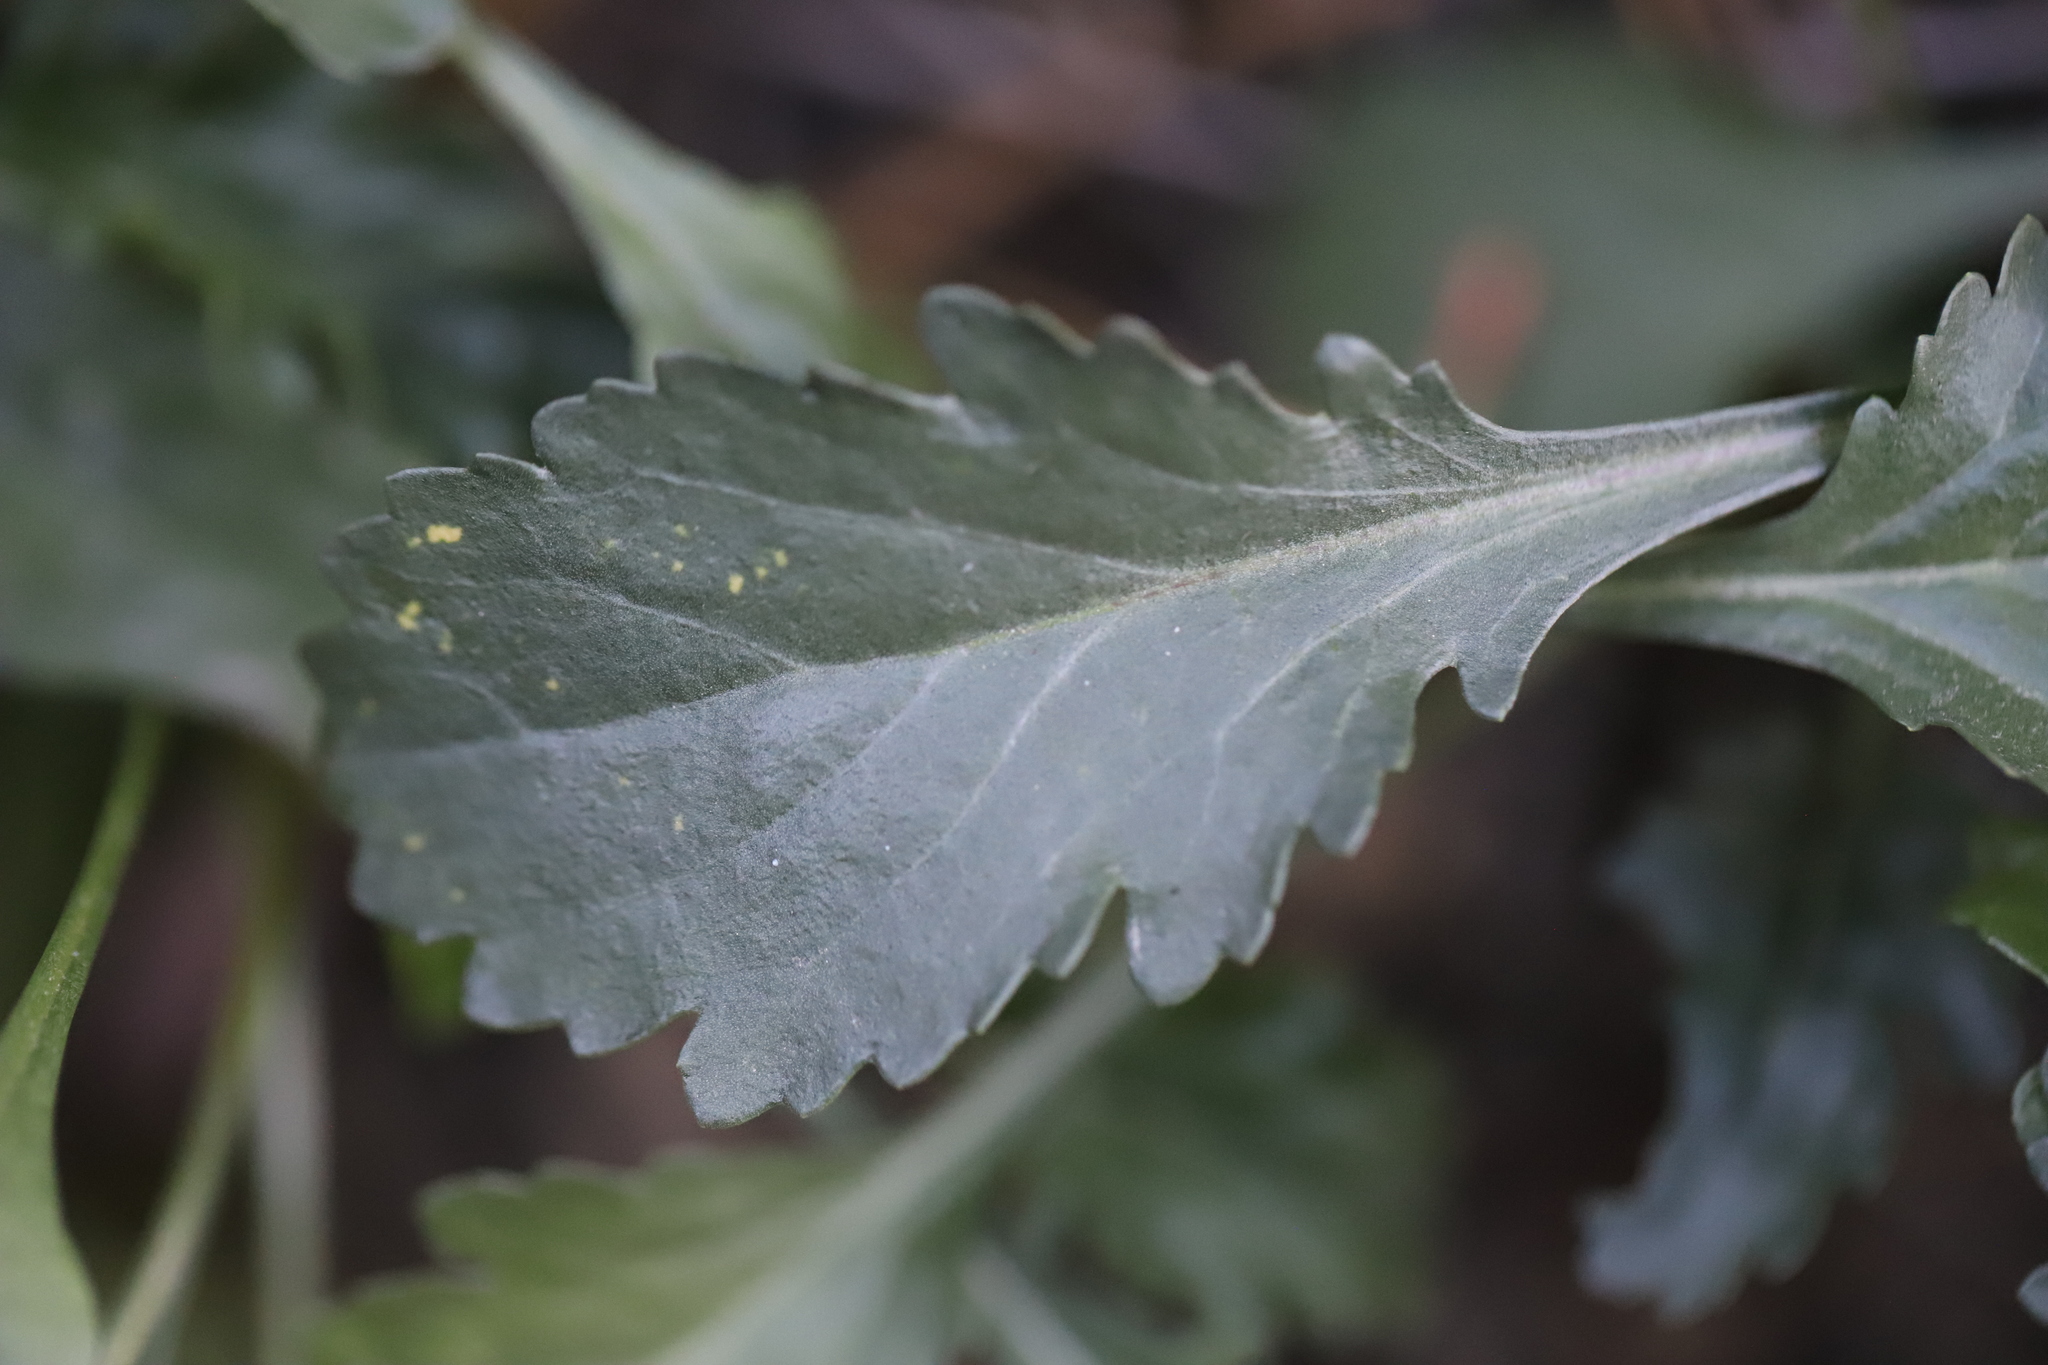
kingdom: Plantae
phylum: Tracheophyta
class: Magnoliopsida
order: Asterales
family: Asteraceae
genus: Leucanthemum
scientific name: Leucanthemum vulgare
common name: Oxeye daisy
